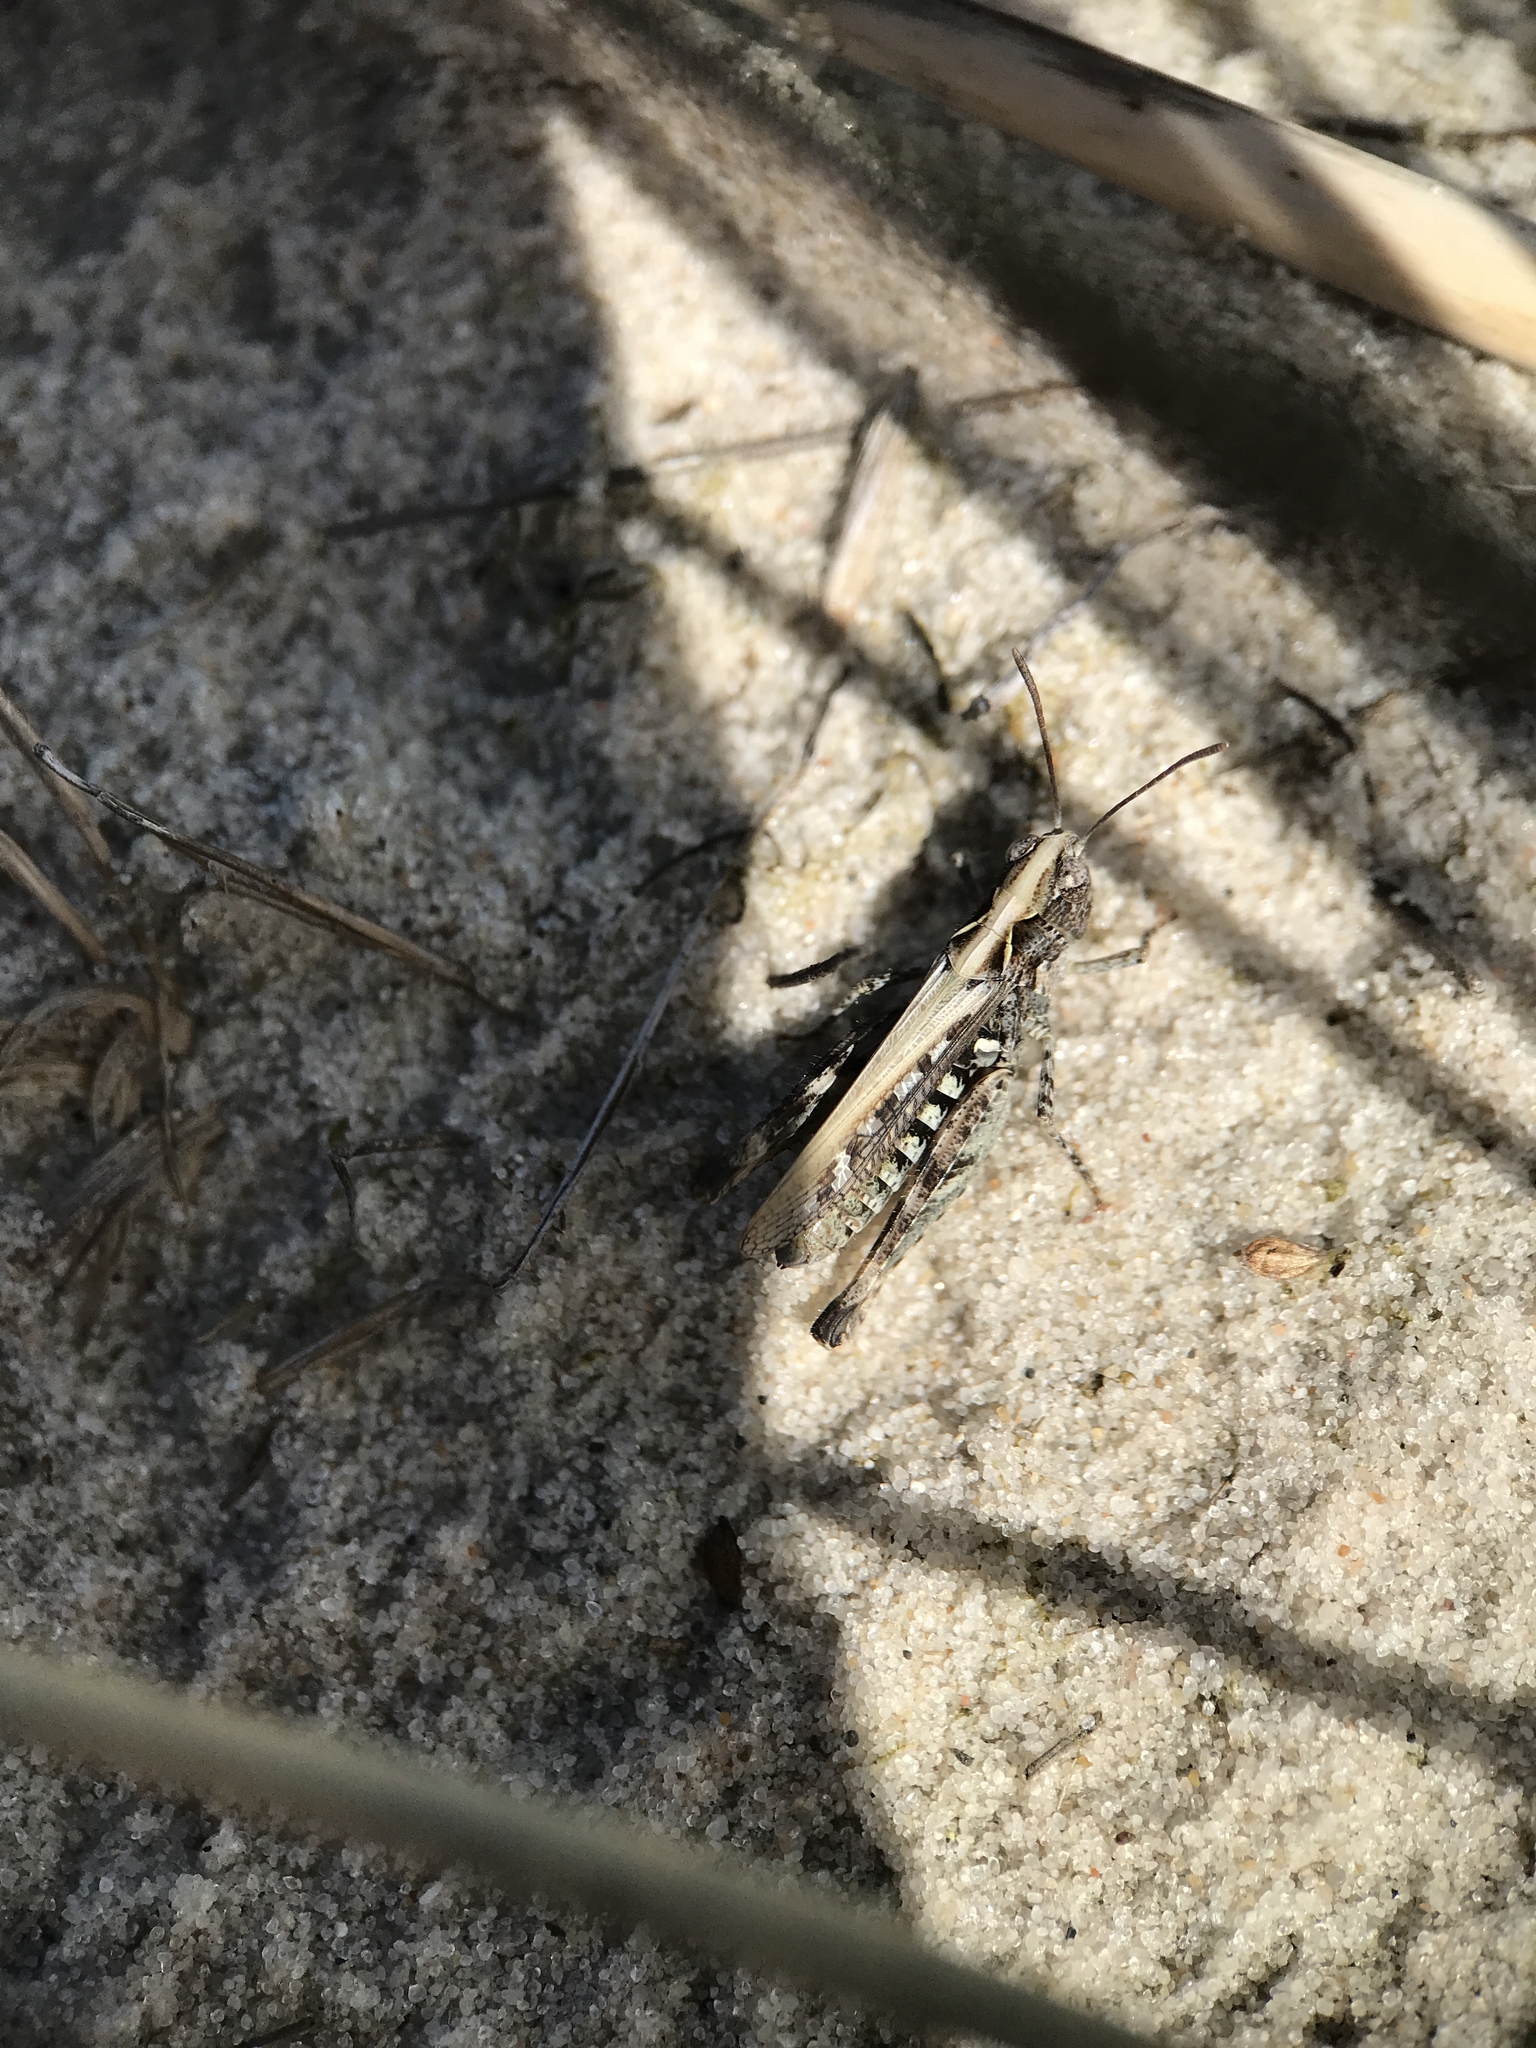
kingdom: Animalia
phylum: Arthropoda
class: Insecta
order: Orthoptera
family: Acrididae
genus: Myrmeleotettix
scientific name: Myrmeleotettix maculatus
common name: Mottled grasshopper
